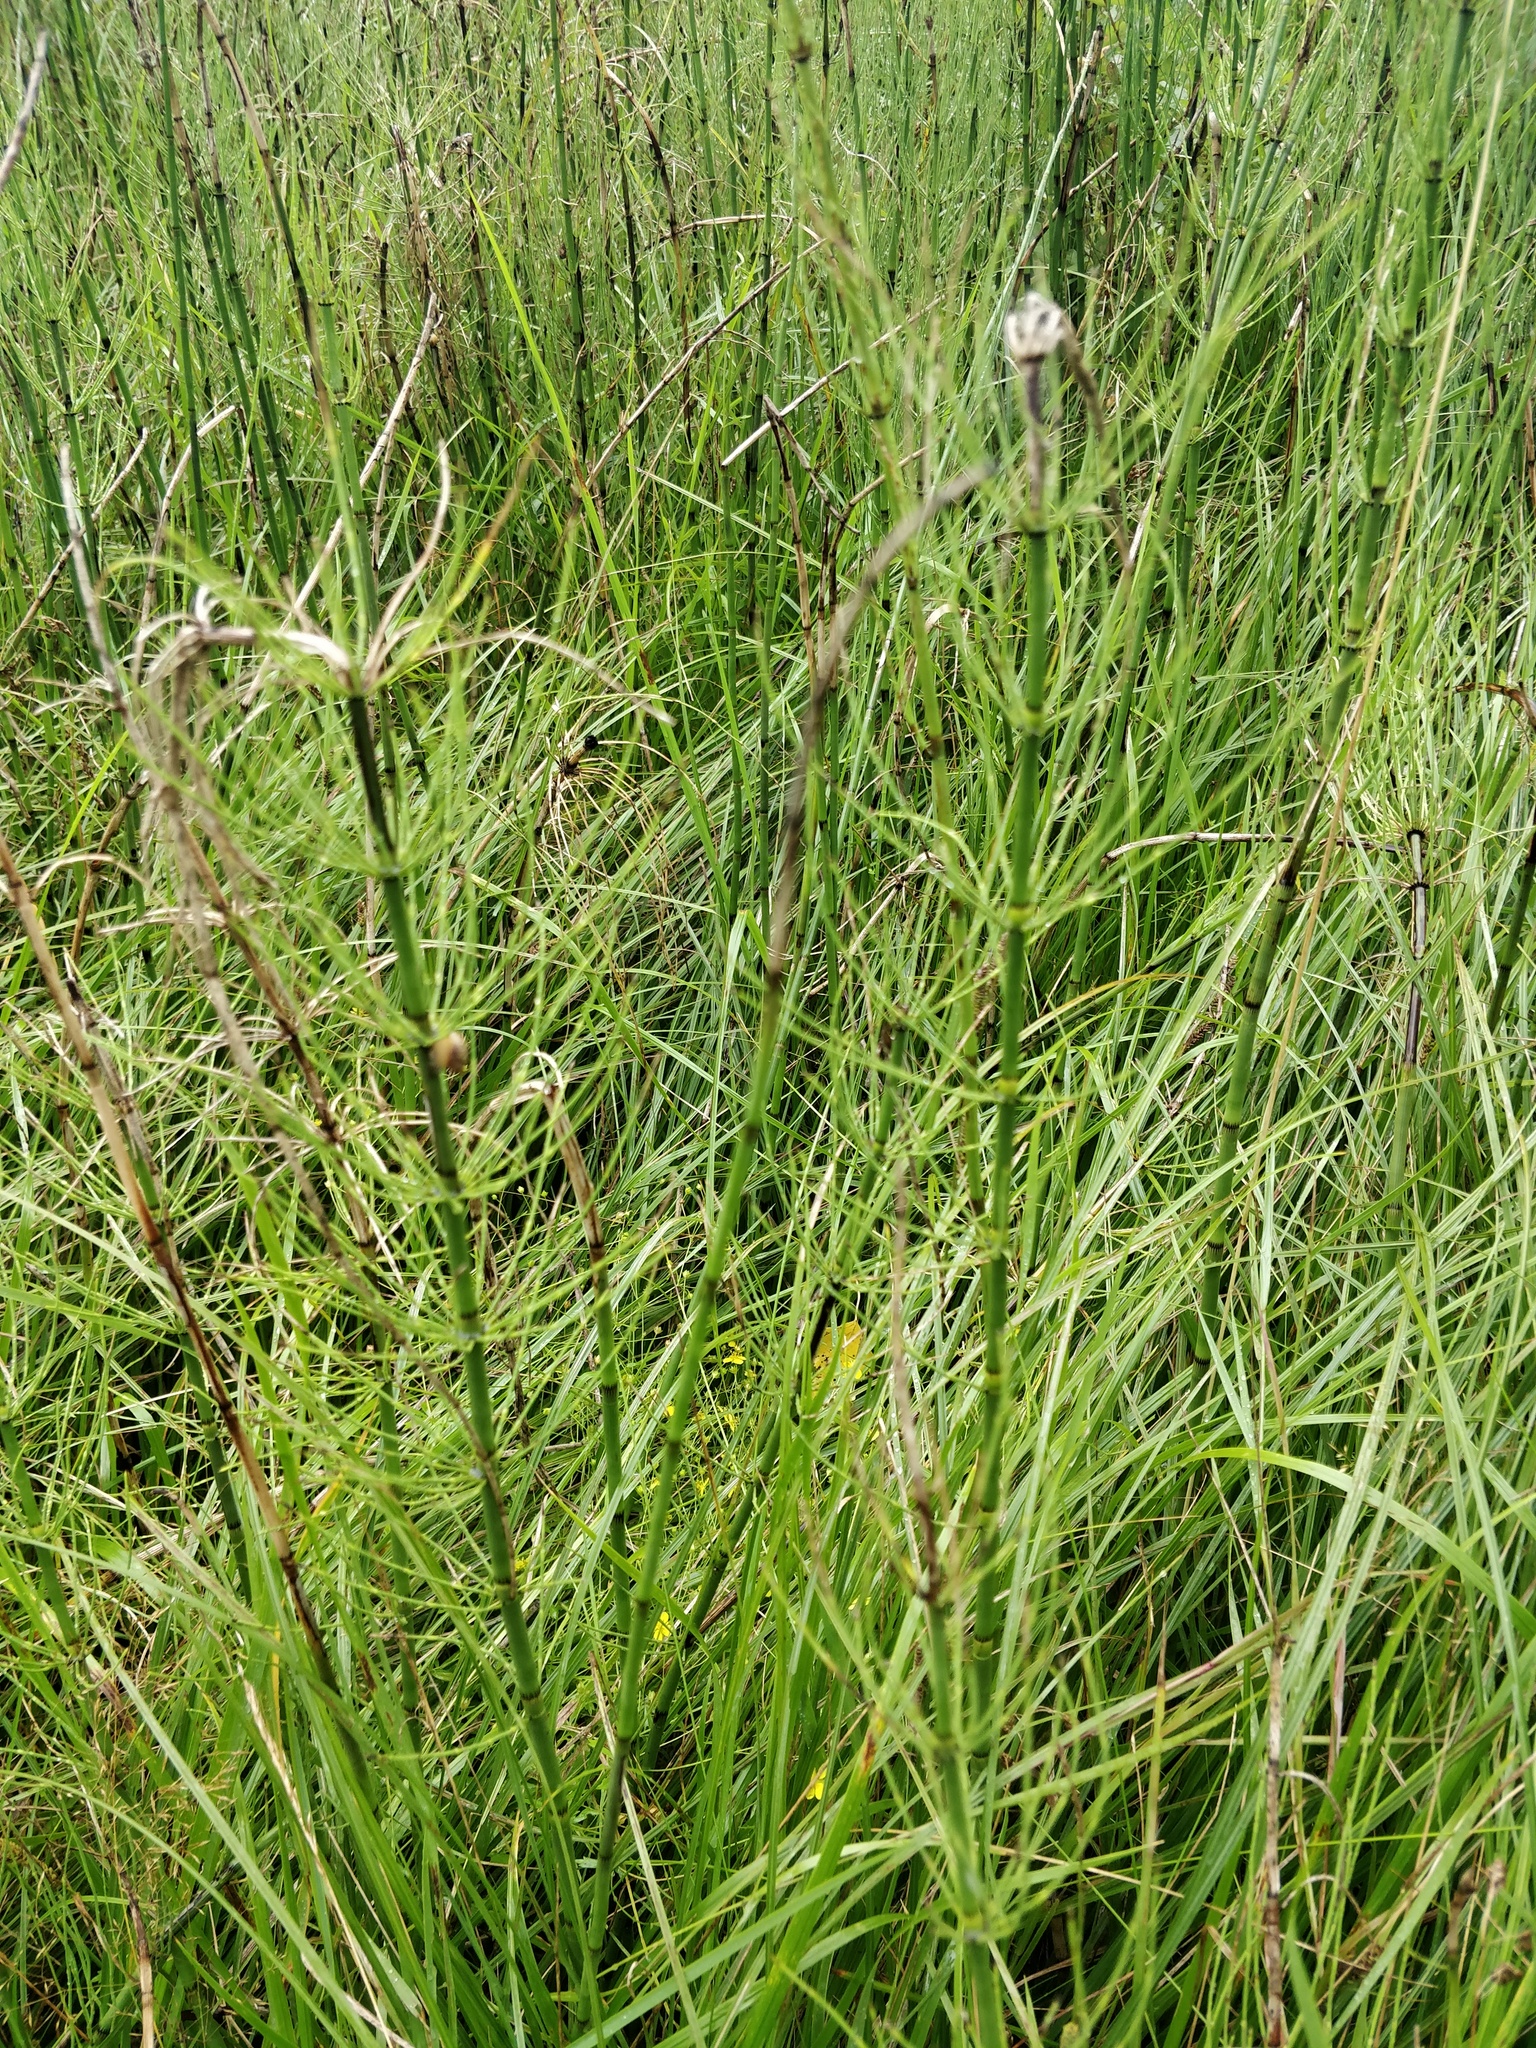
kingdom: Plantae
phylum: Tracheophyta
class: Polypodiopsida
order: Equisetales
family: Equisetaceae
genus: Equisetum
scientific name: Equisetum fluviatile
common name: Water horsetail
